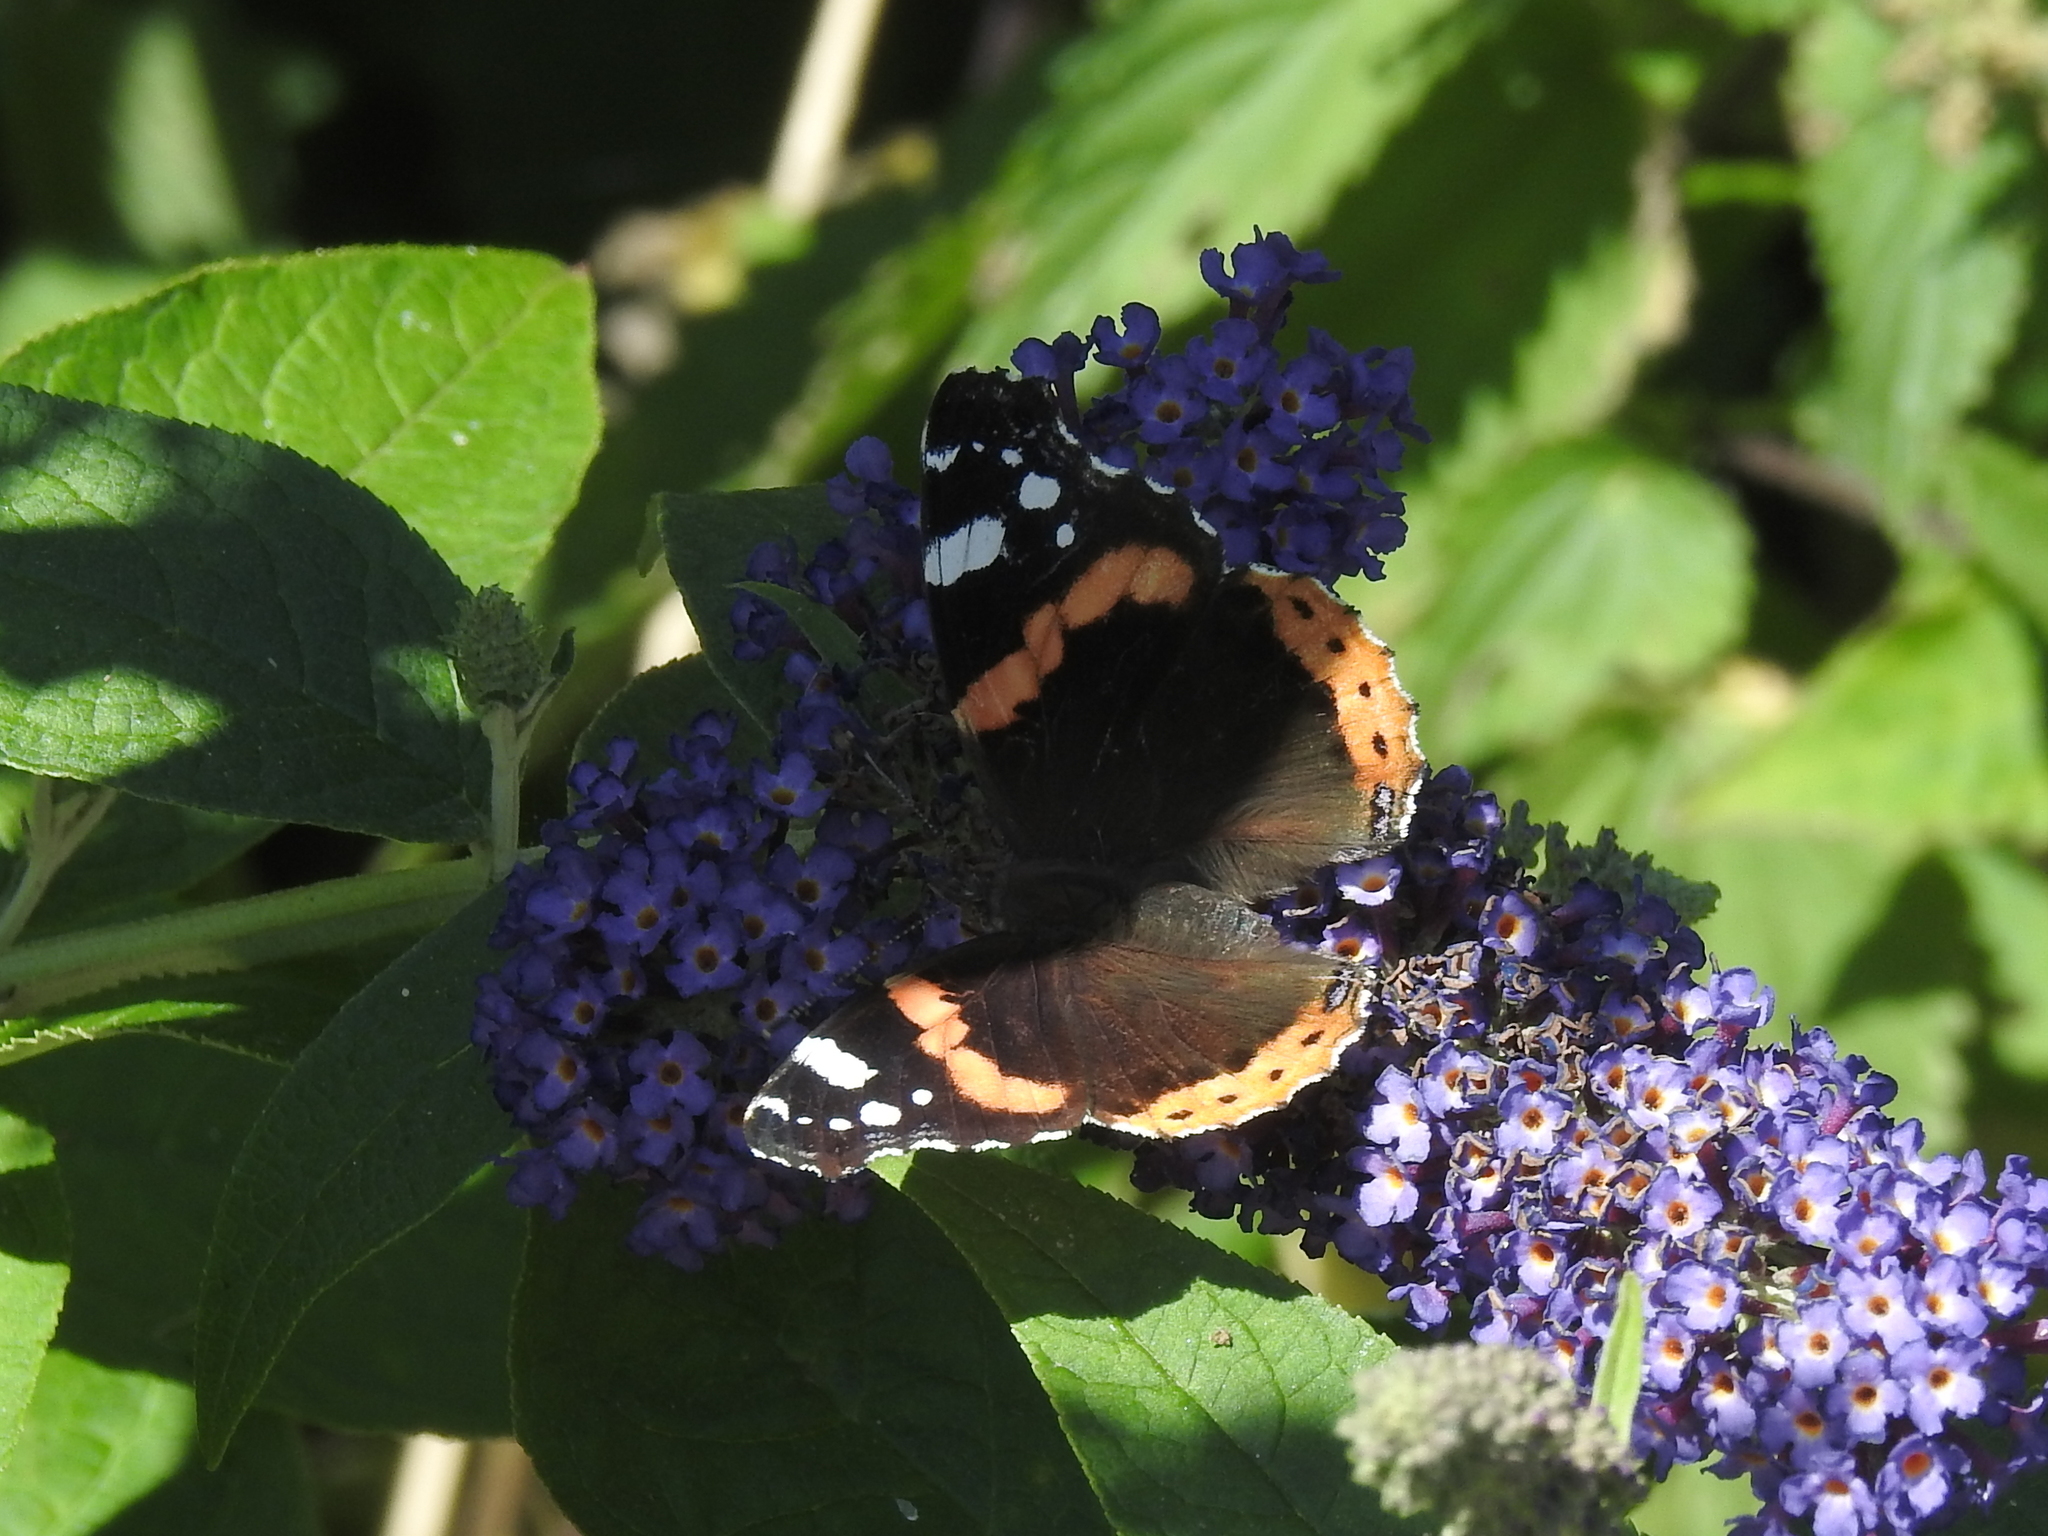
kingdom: Animalia
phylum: Arthropoda
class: Insecta
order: Lepidoptera
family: Nymphalidae
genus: Vanessa
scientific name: Vanessa atalanta
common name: Red admiral
